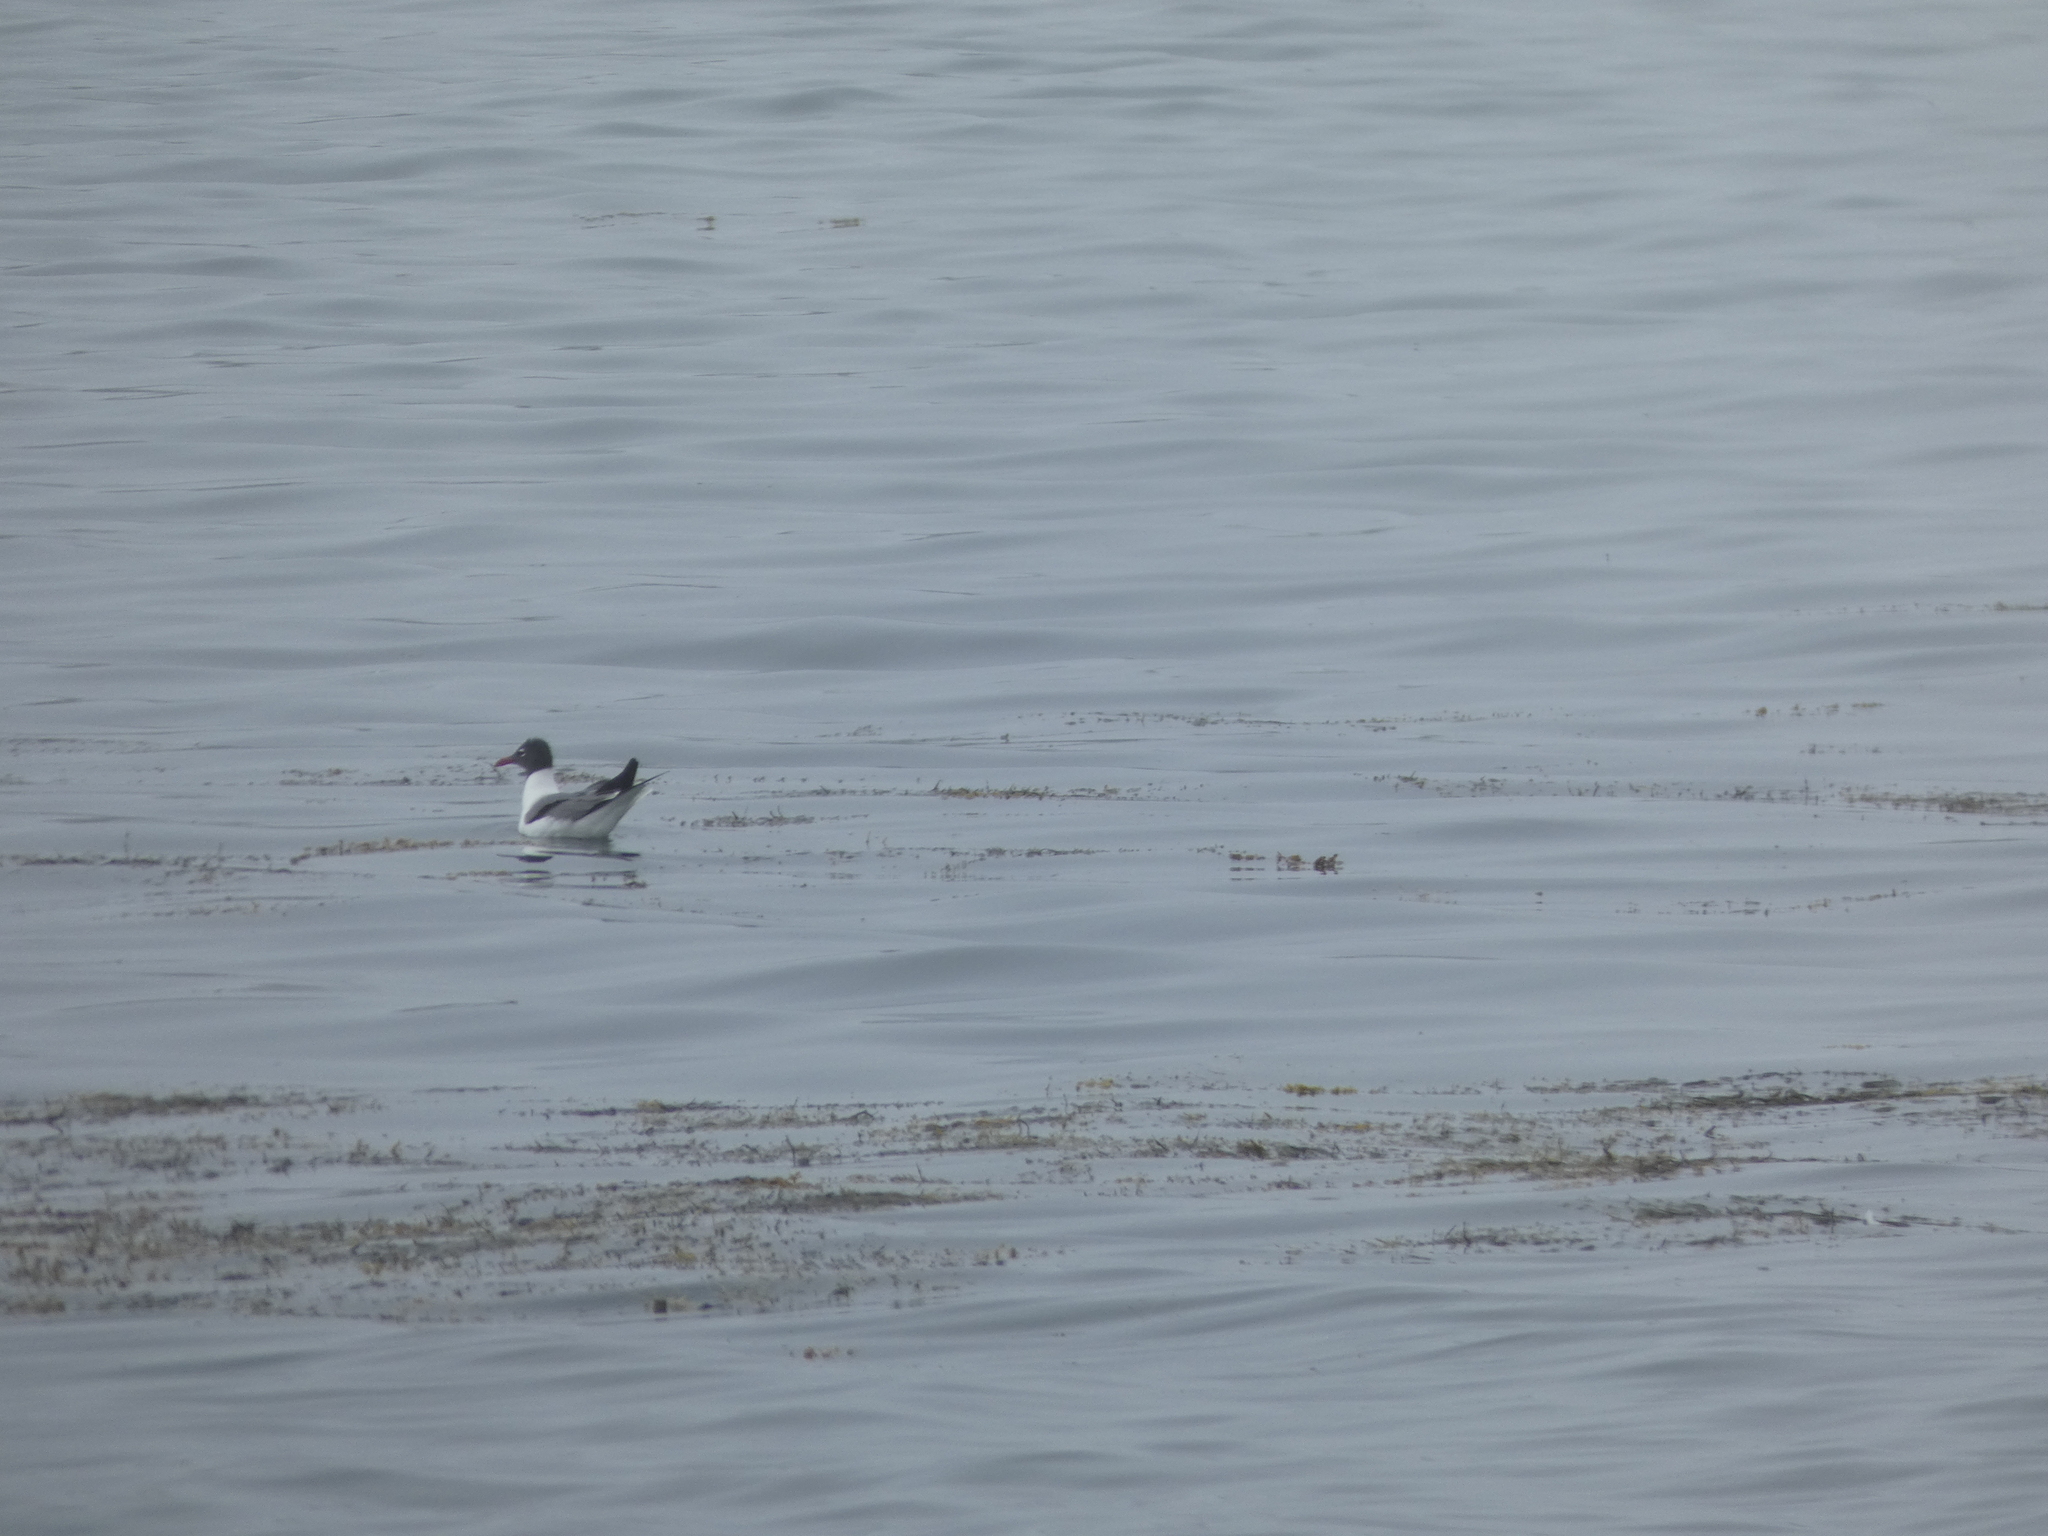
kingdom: Animalia
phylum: Chordata
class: Aves
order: Charadriiformes
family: Laridae
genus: Leucophaeus
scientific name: Leucophaeus atricilla
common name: Laughing gull
